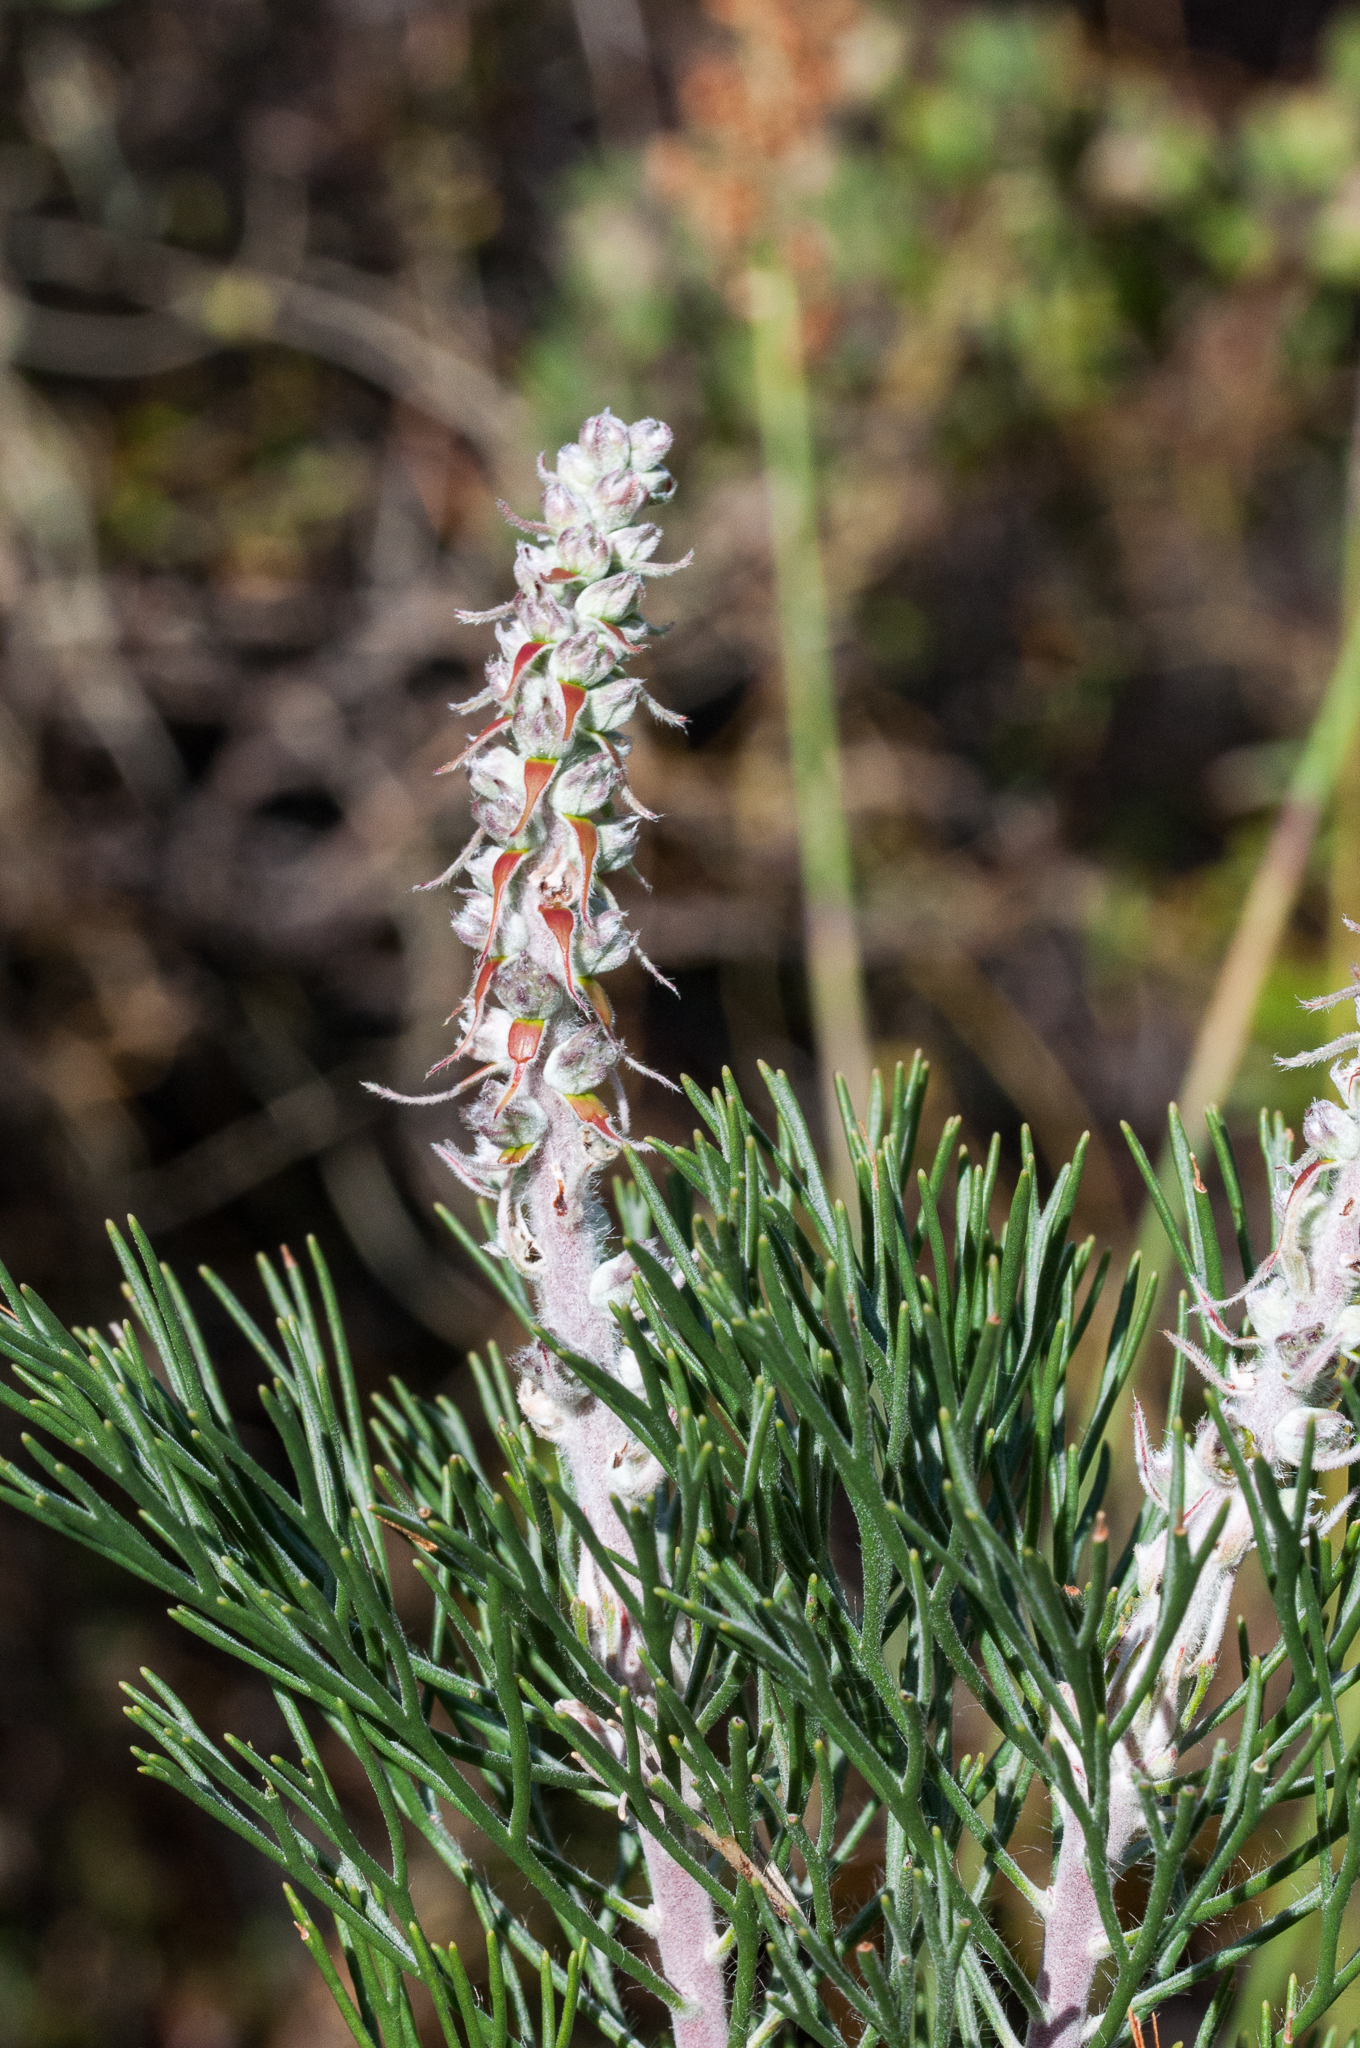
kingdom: Plantae
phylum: Tracheophyta
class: Magnoliopsida
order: Proteales
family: Proteaceae
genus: Paranomus
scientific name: Paranomus bracteolaris
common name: Bokkeveld tree sceptre
